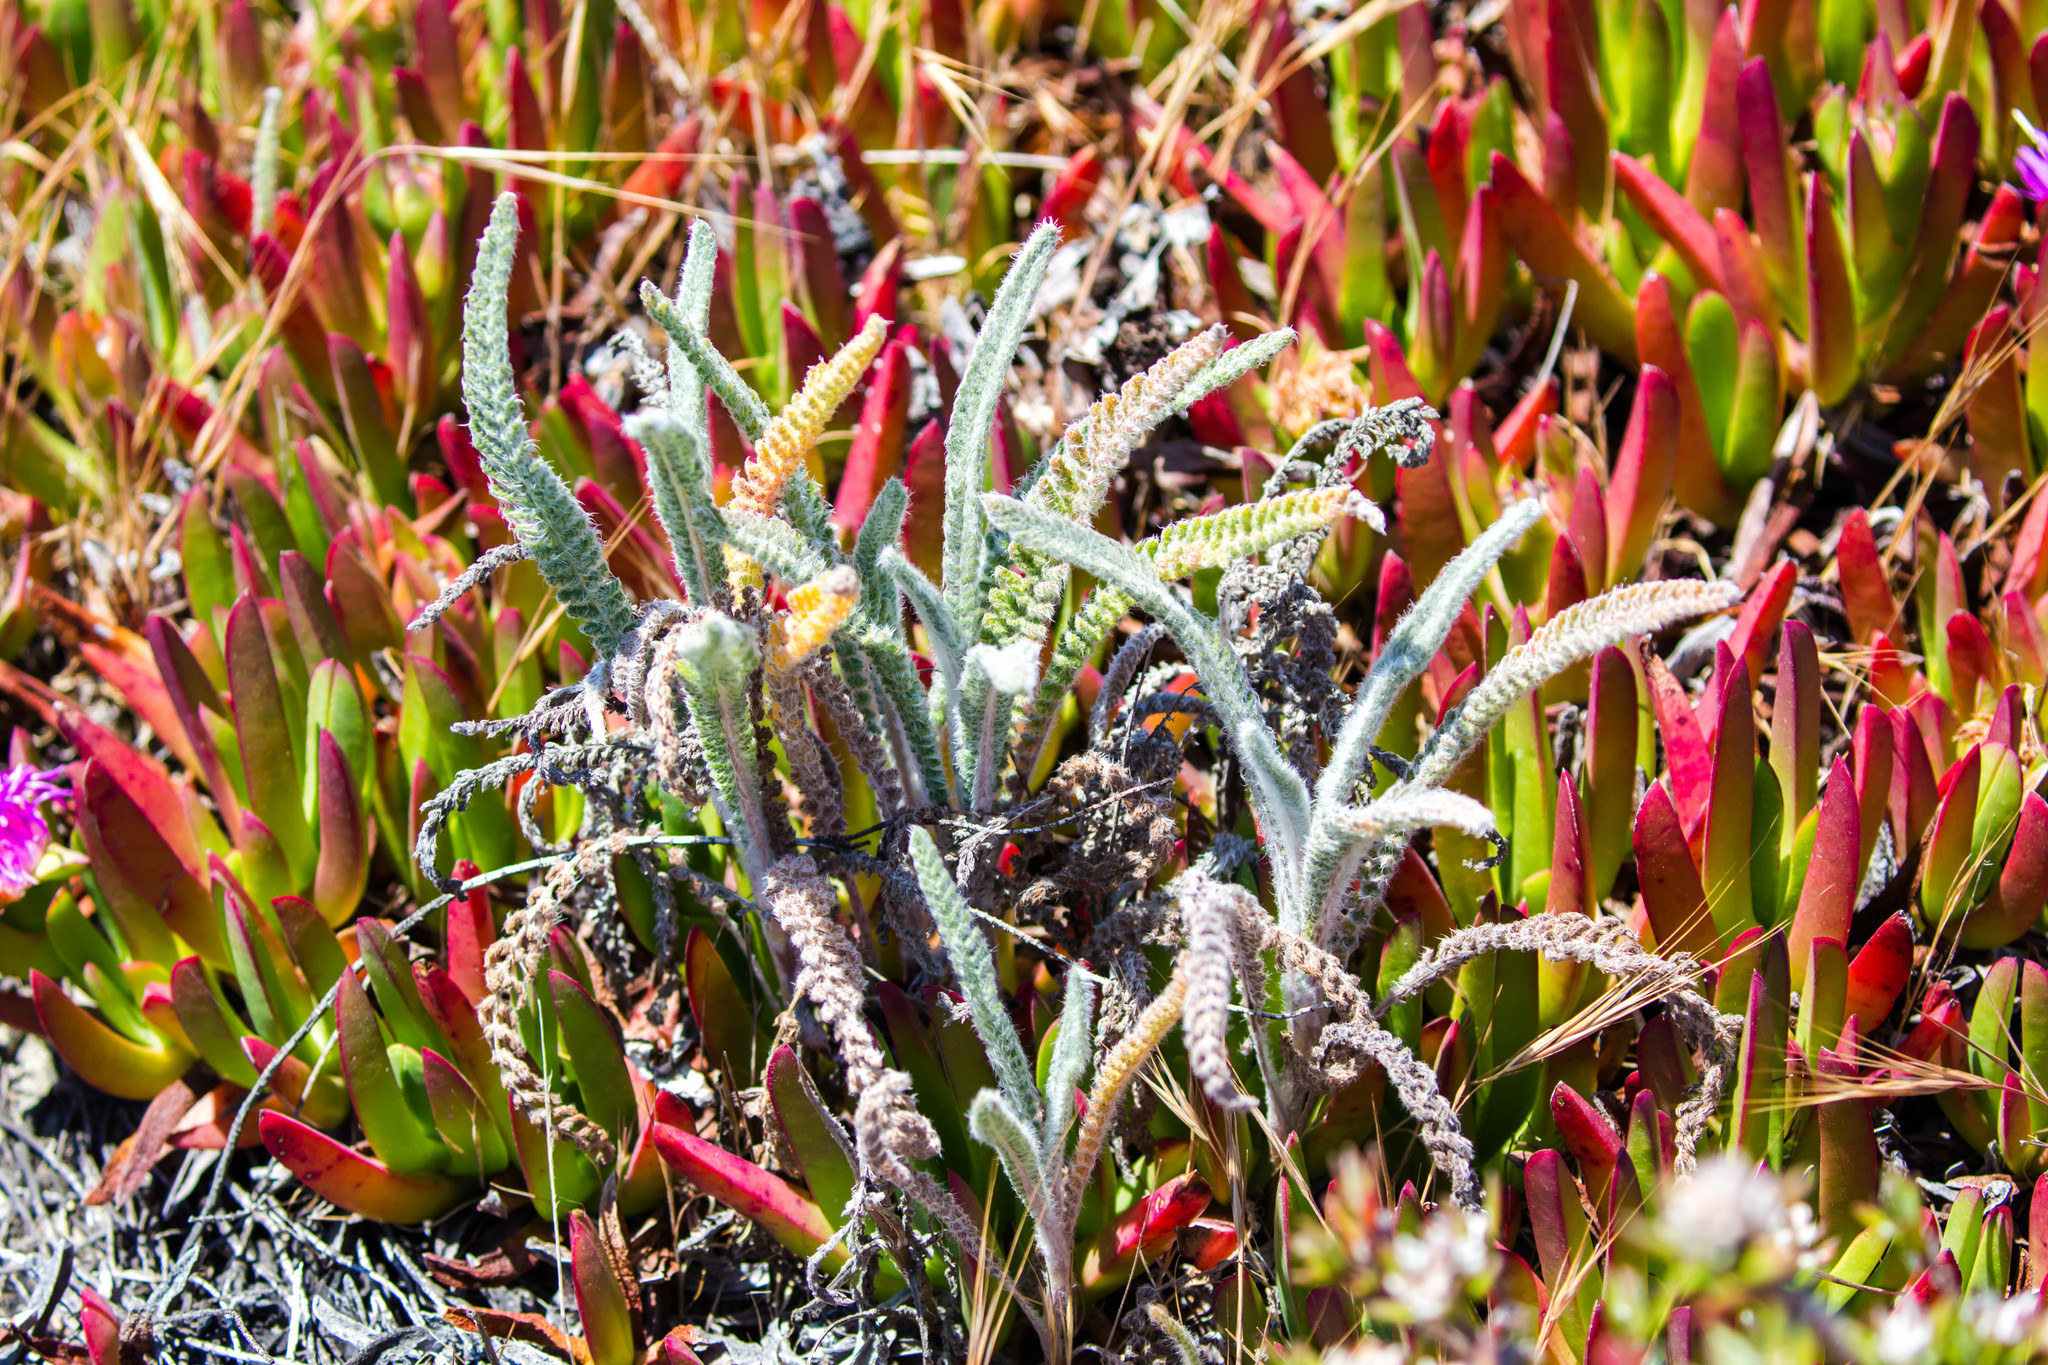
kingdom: Plantae
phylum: Tracheophyta
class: Magnoliopsida
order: Asterales
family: Asteraceae
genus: Achillea
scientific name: Achillea millefolium
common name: Yarrow
